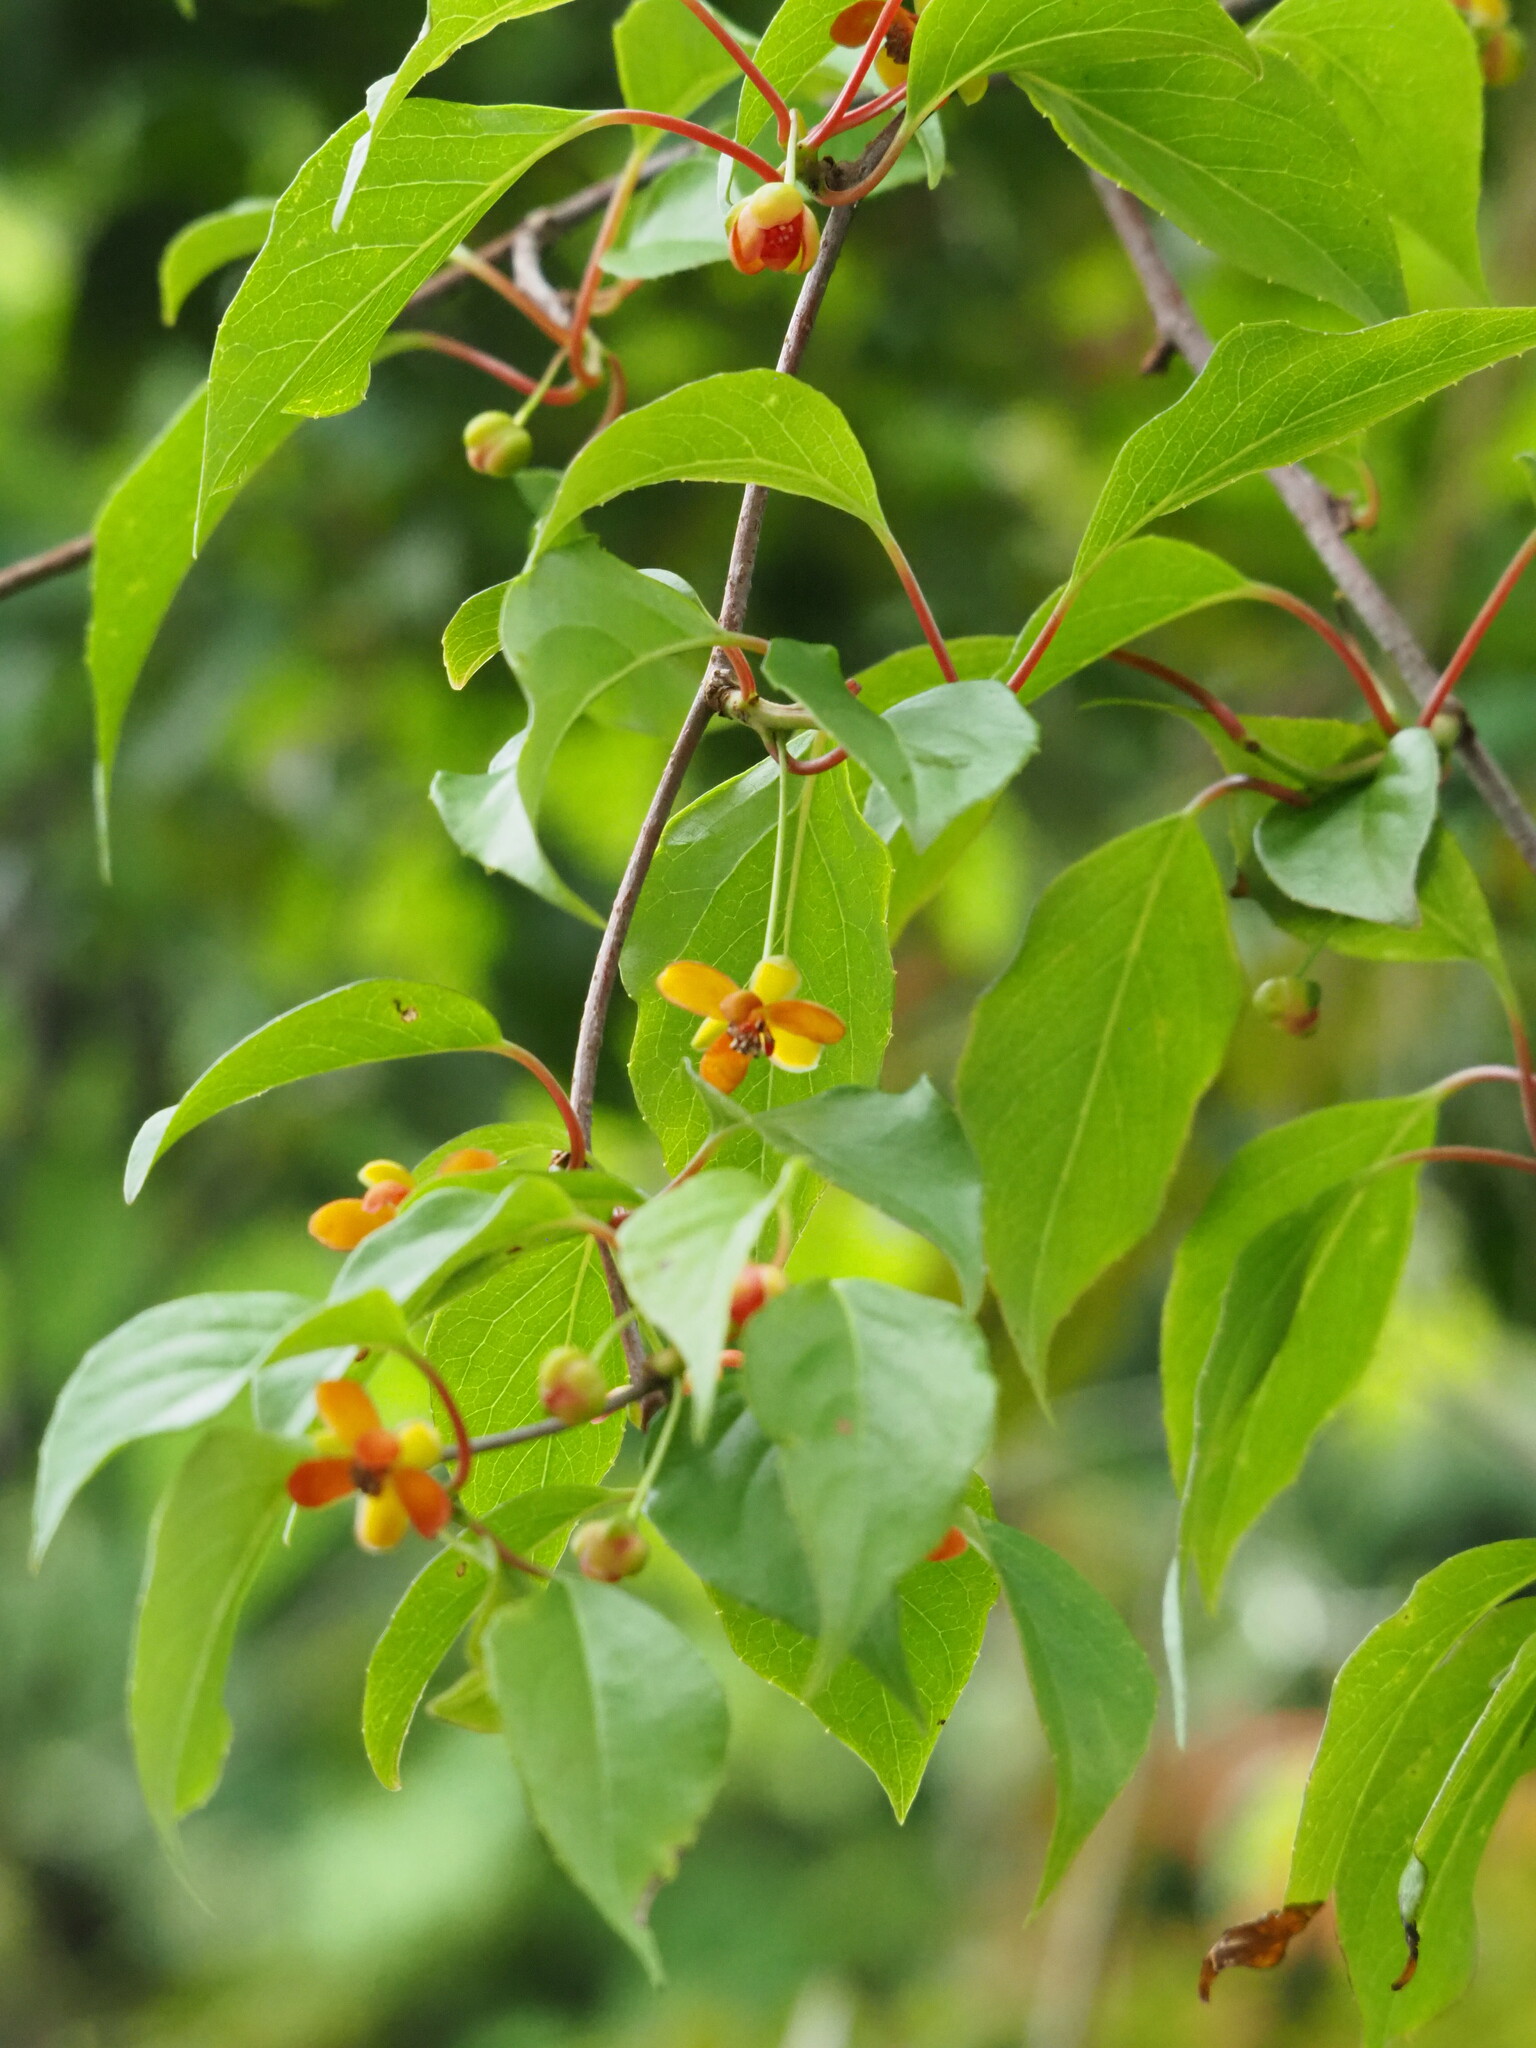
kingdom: Plantae
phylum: Tracheophyta
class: Magnoliopsida
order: Austrobaileyales
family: Schisandraceae
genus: Schisandra
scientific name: Schisandra arisanensis
